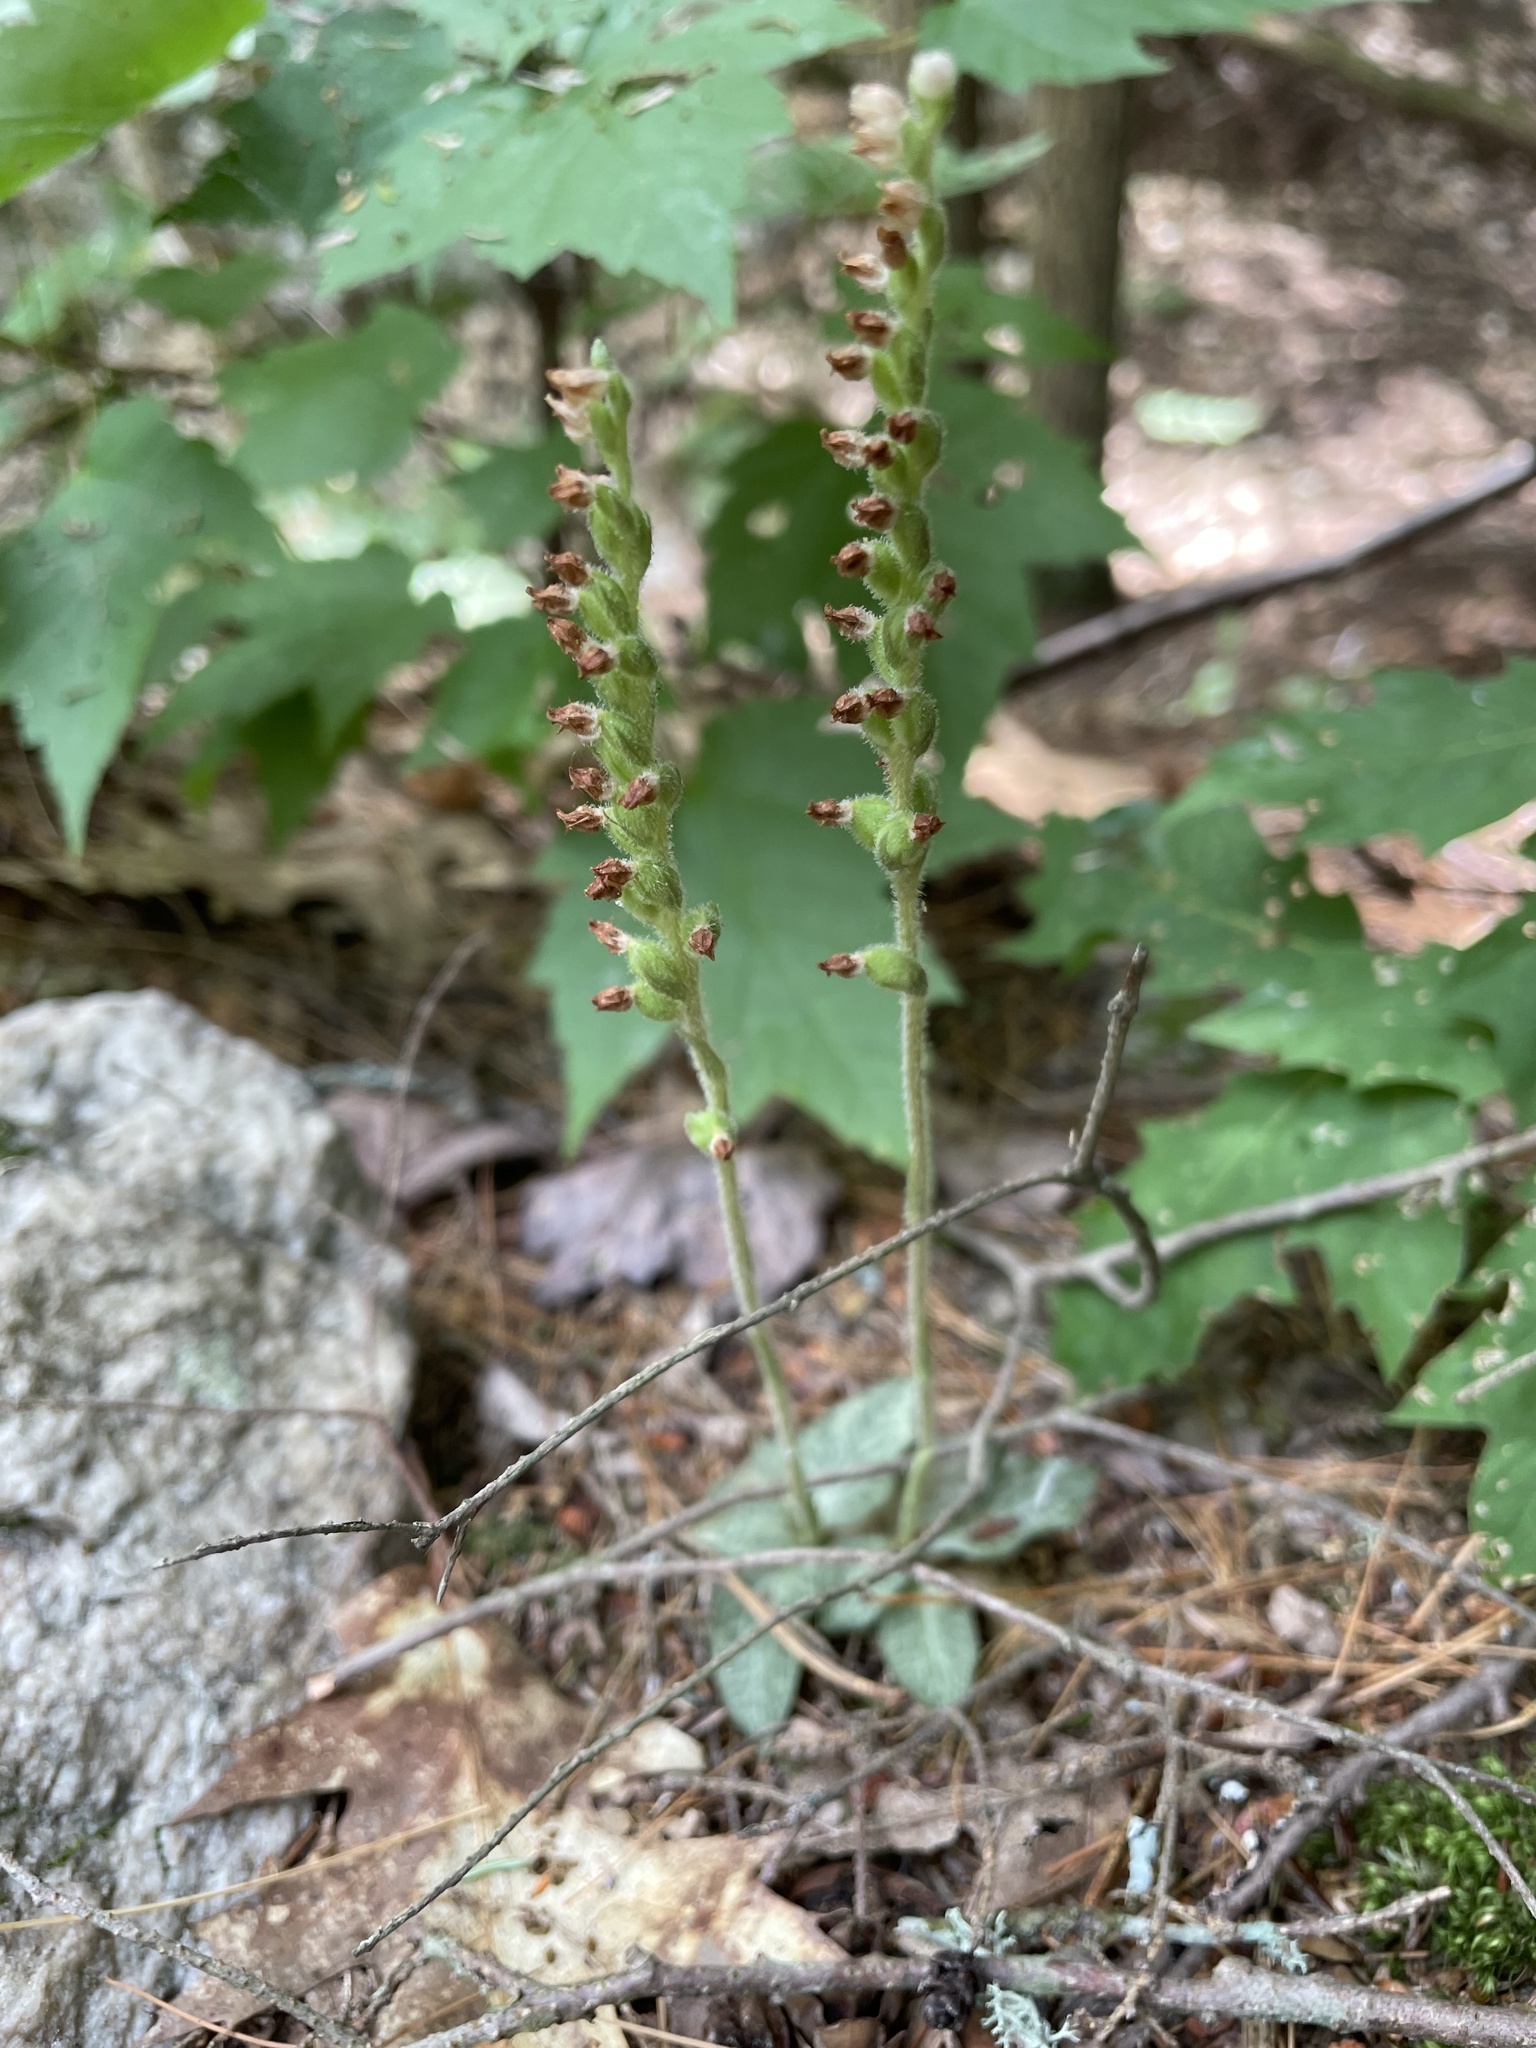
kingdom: Plantae
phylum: Tracheophyta
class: Liliopsida
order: Asparagales
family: Orchidaceae
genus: Goodyera
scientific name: Goodyera tesselata
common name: Checkered rattlesnake-plantain
